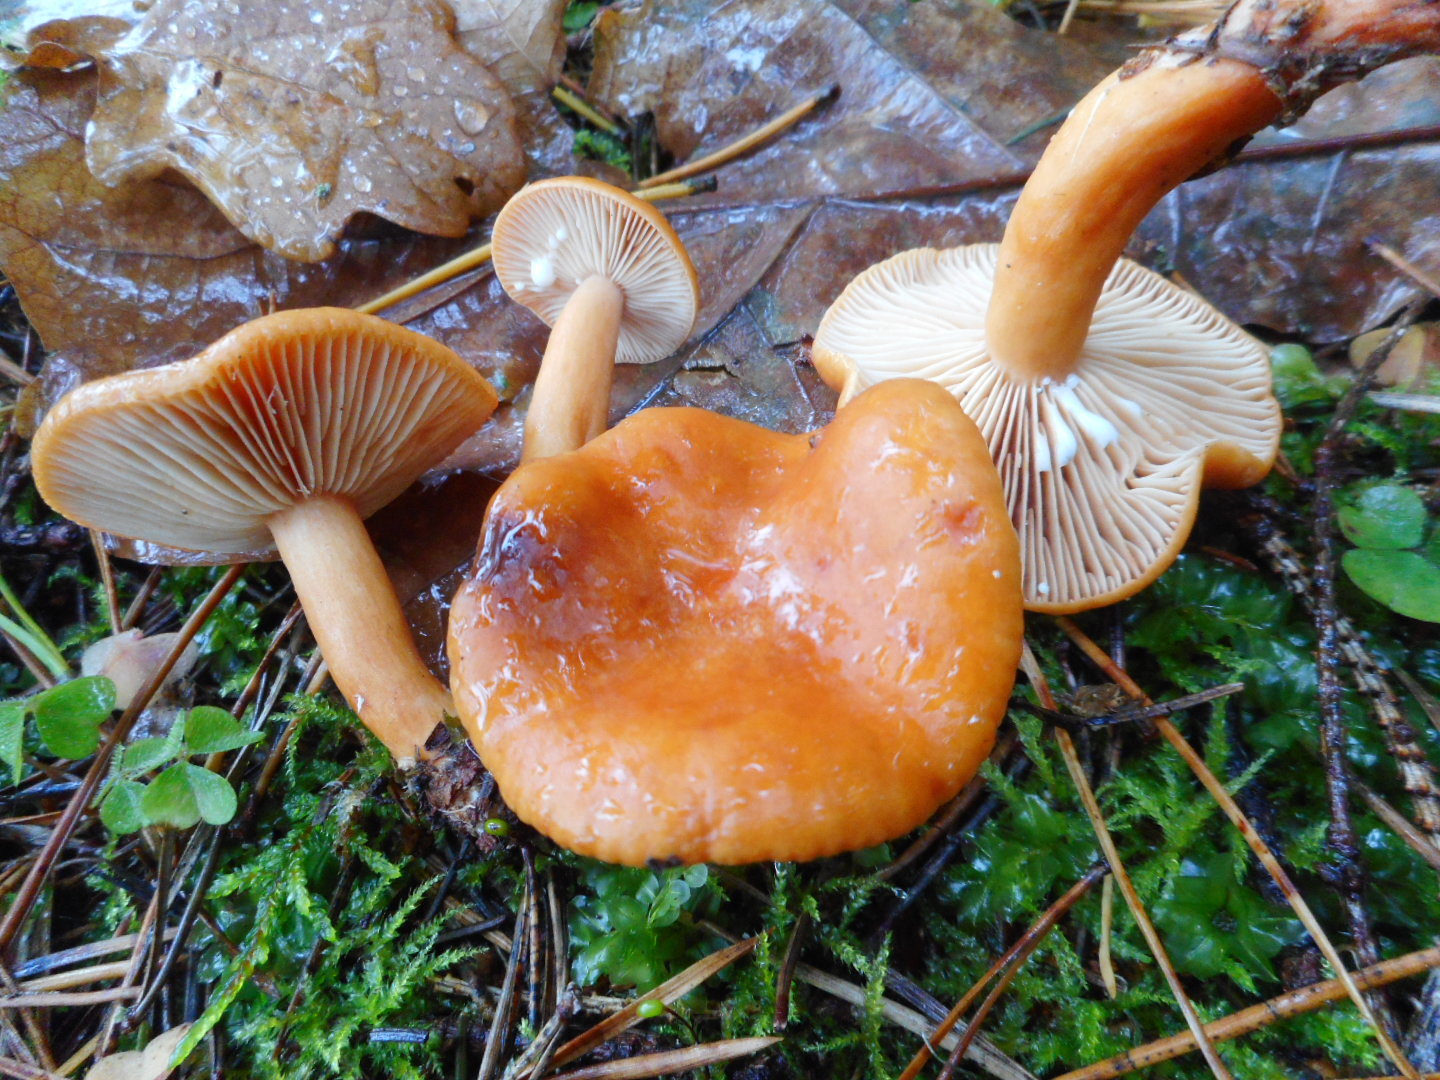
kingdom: Fungi
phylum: Basidiomycota
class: Agaricomycetes
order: Russulales
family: Russulaceae
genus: Lactarius
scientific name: Lactarius aurantiacus
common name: Orange milkcap
